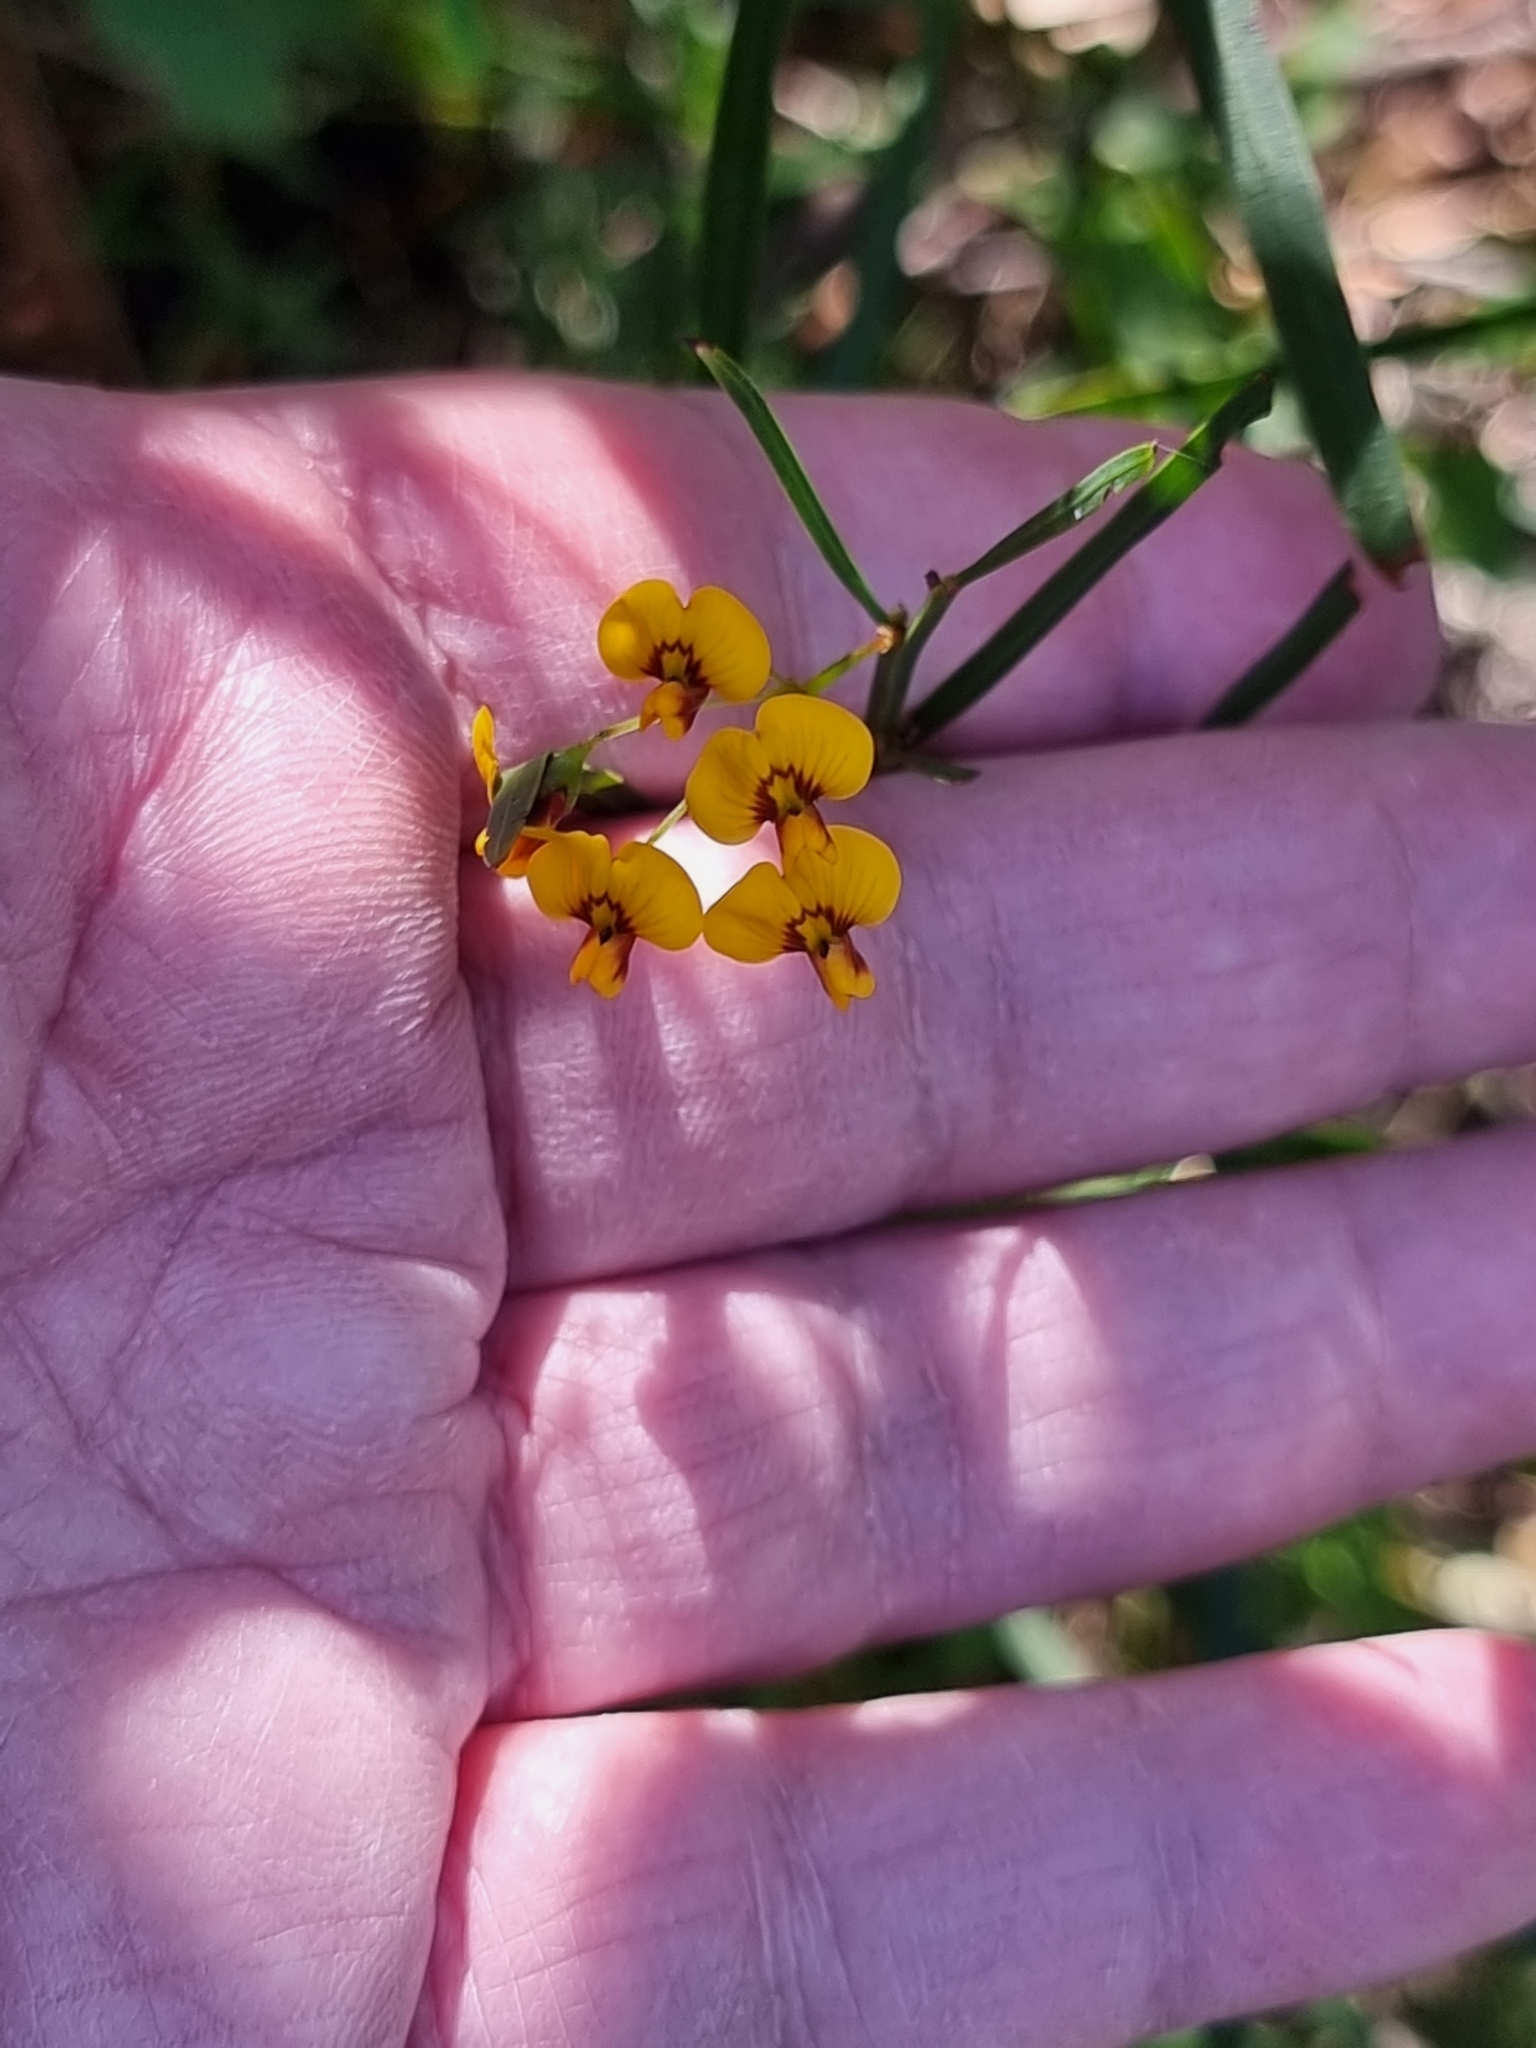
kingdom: Plantae
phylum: Tracheophyta
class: Magnoliopsida
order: Fabales
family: Fabaceae
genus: Daviesia
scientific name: Daviesia wyattiana
